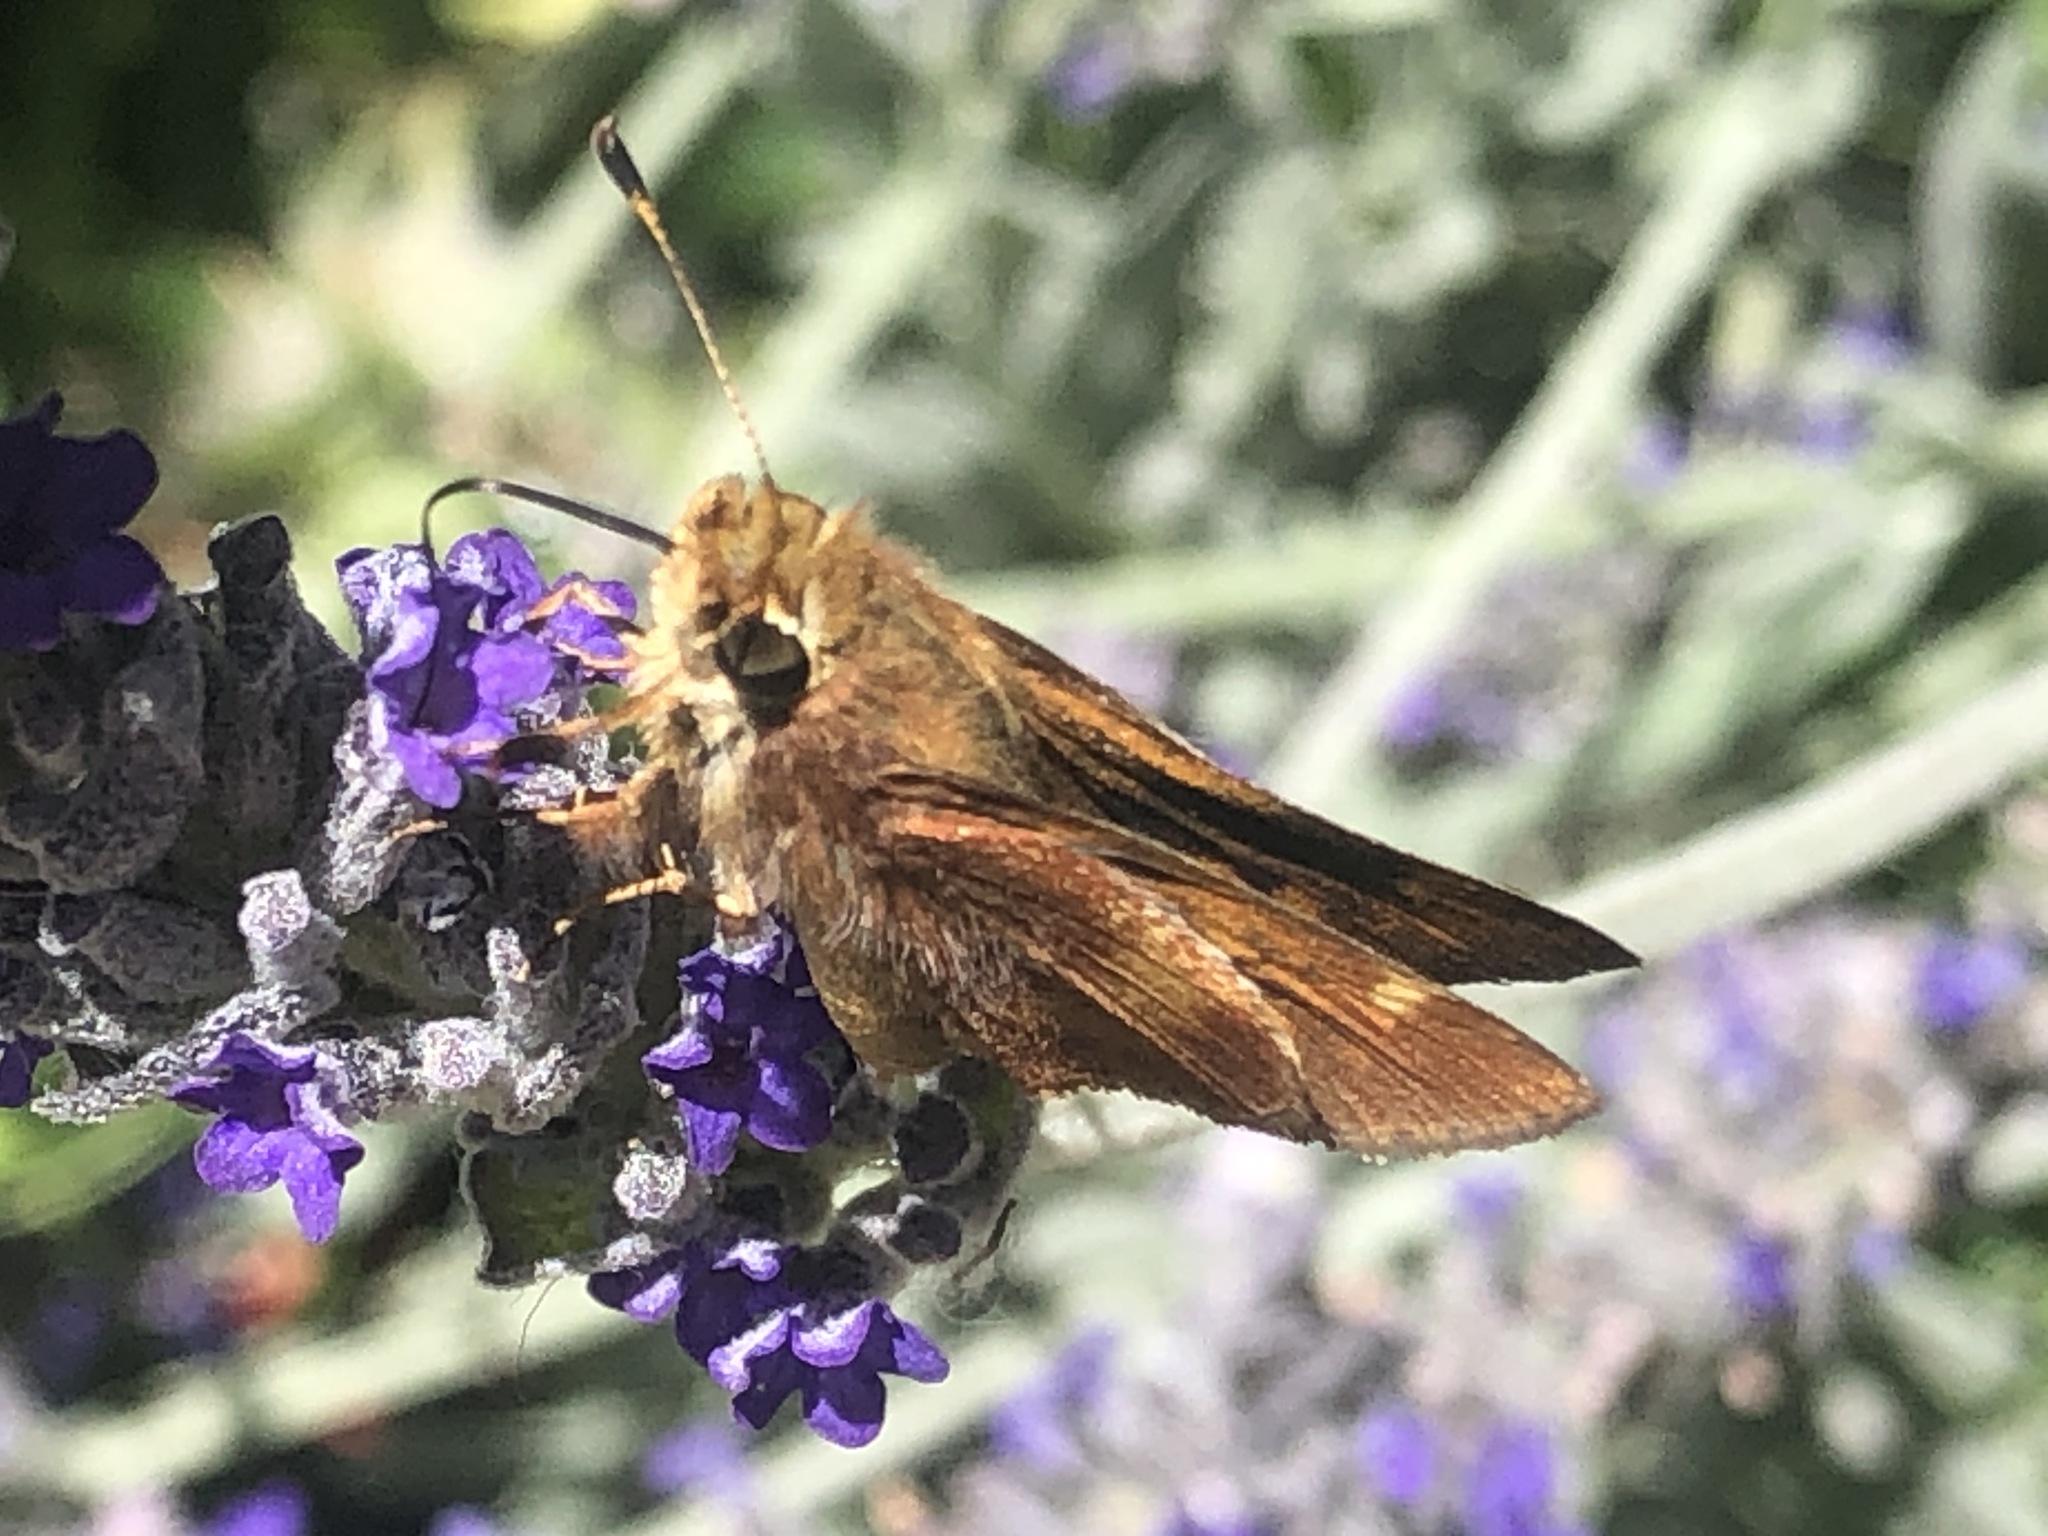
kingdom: Animalia
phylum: Arthropoda
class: Insecta
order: Lepidoptera
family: Hesperiidae
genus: Lon
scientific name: Lon melane
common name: Umber skipper
